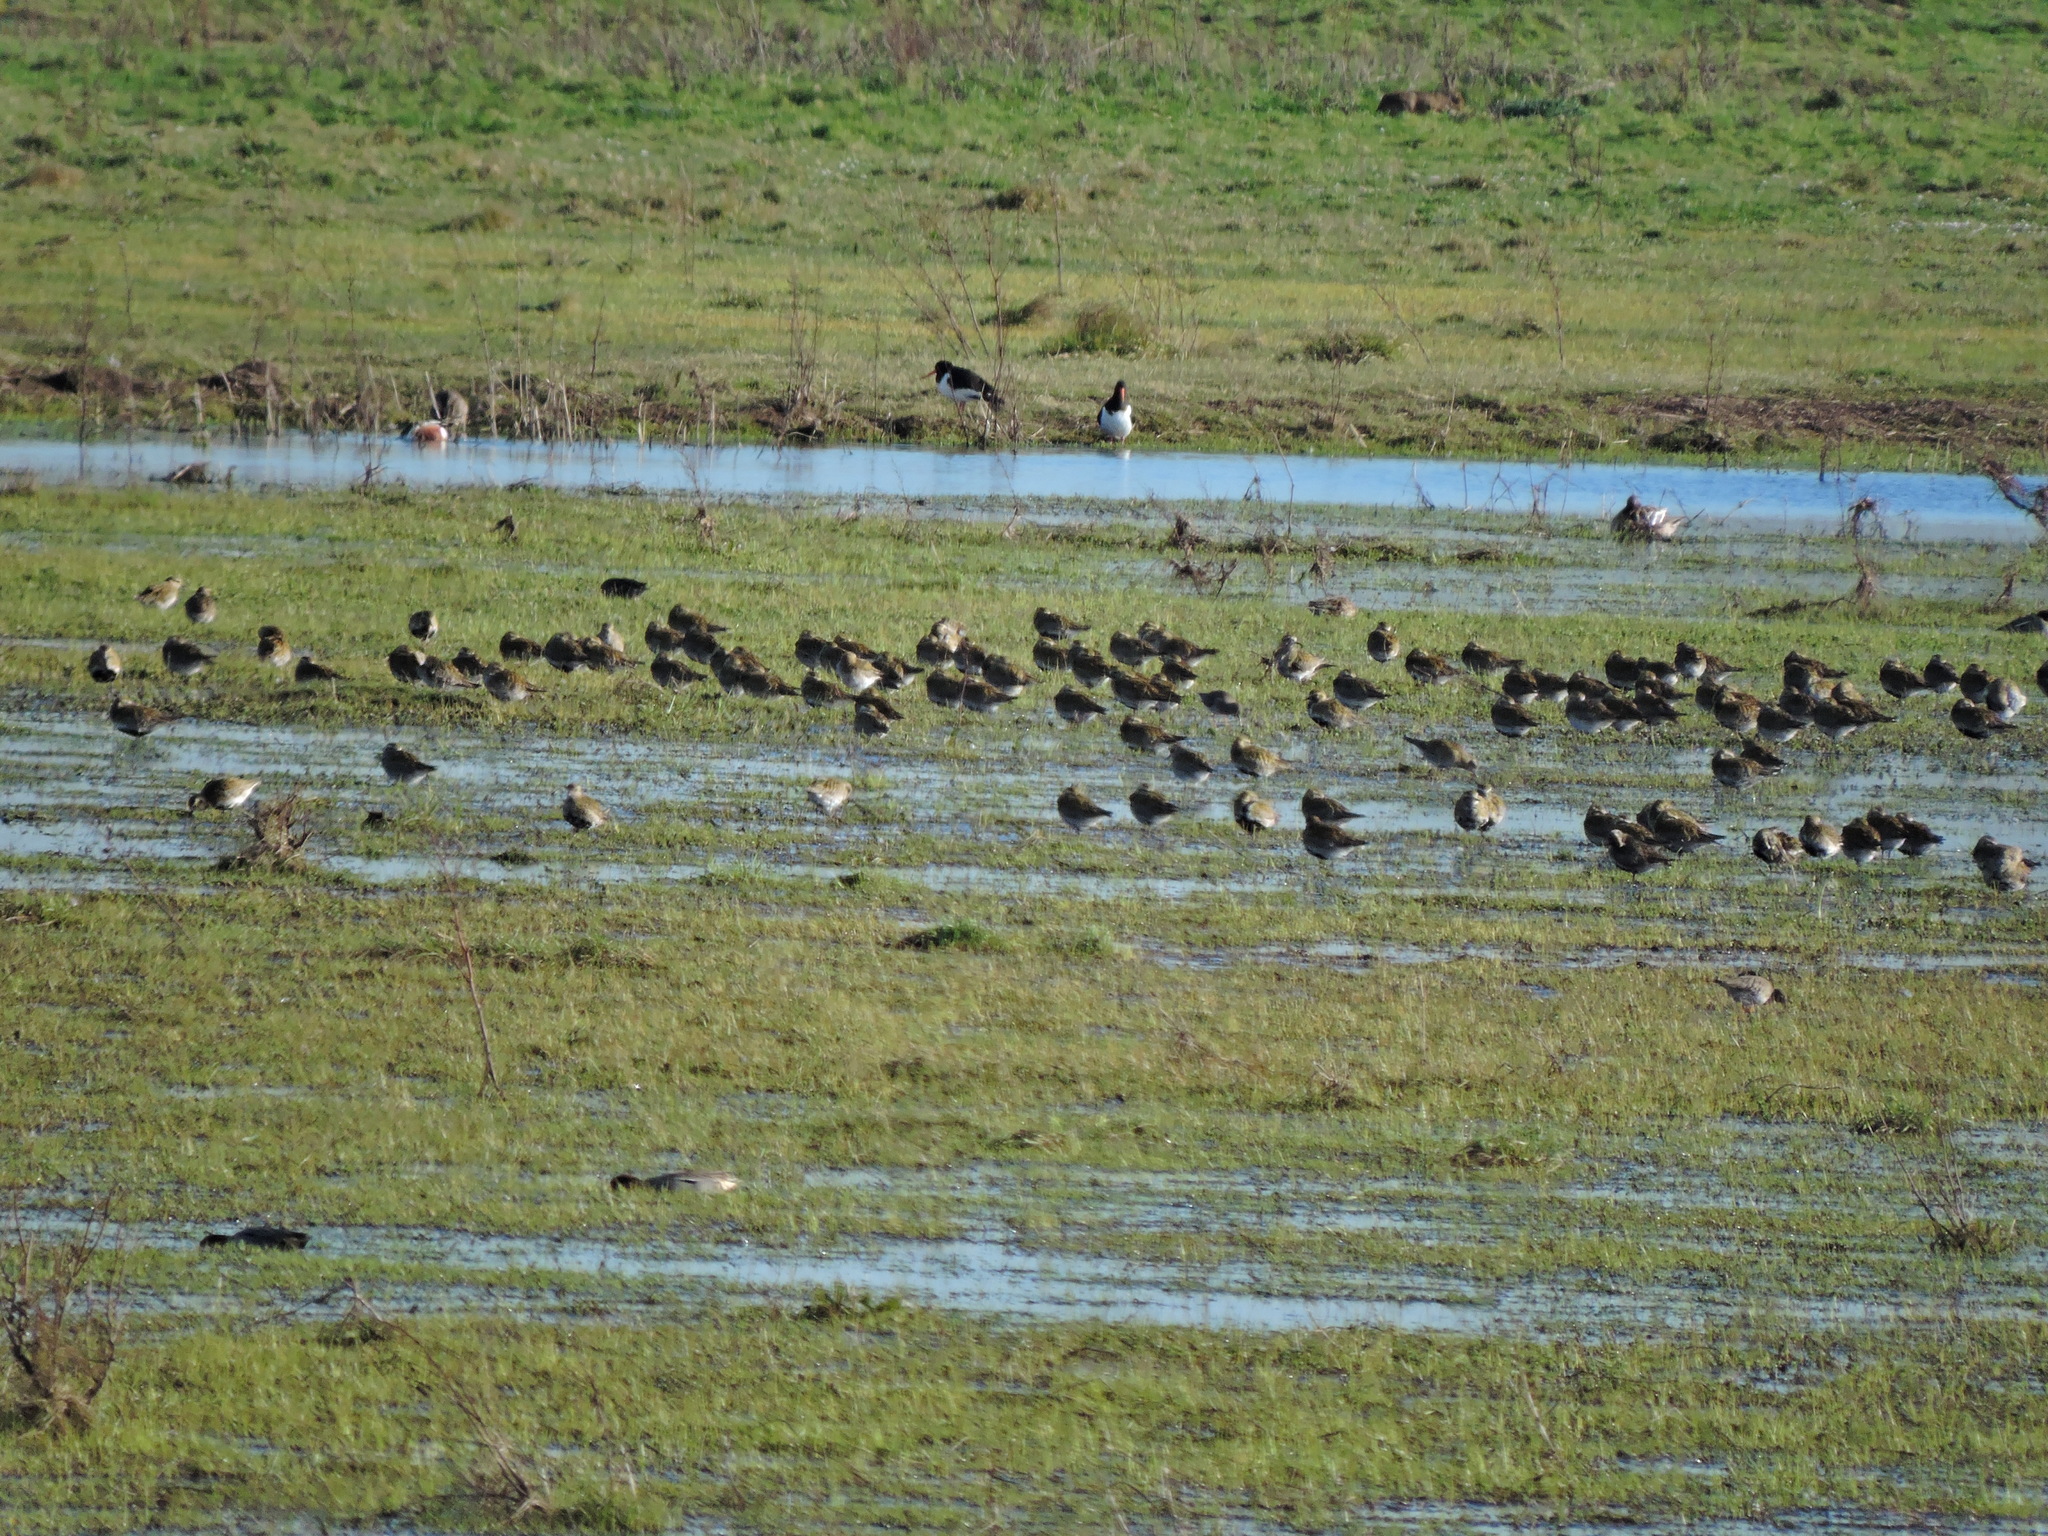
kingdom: Animalia
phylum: Chordata
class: Aves
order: Charadriiformes
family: Haematopodidae
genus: Haematopus
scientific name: Haematopus ostralegus
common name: Eurasian oystercatcher
